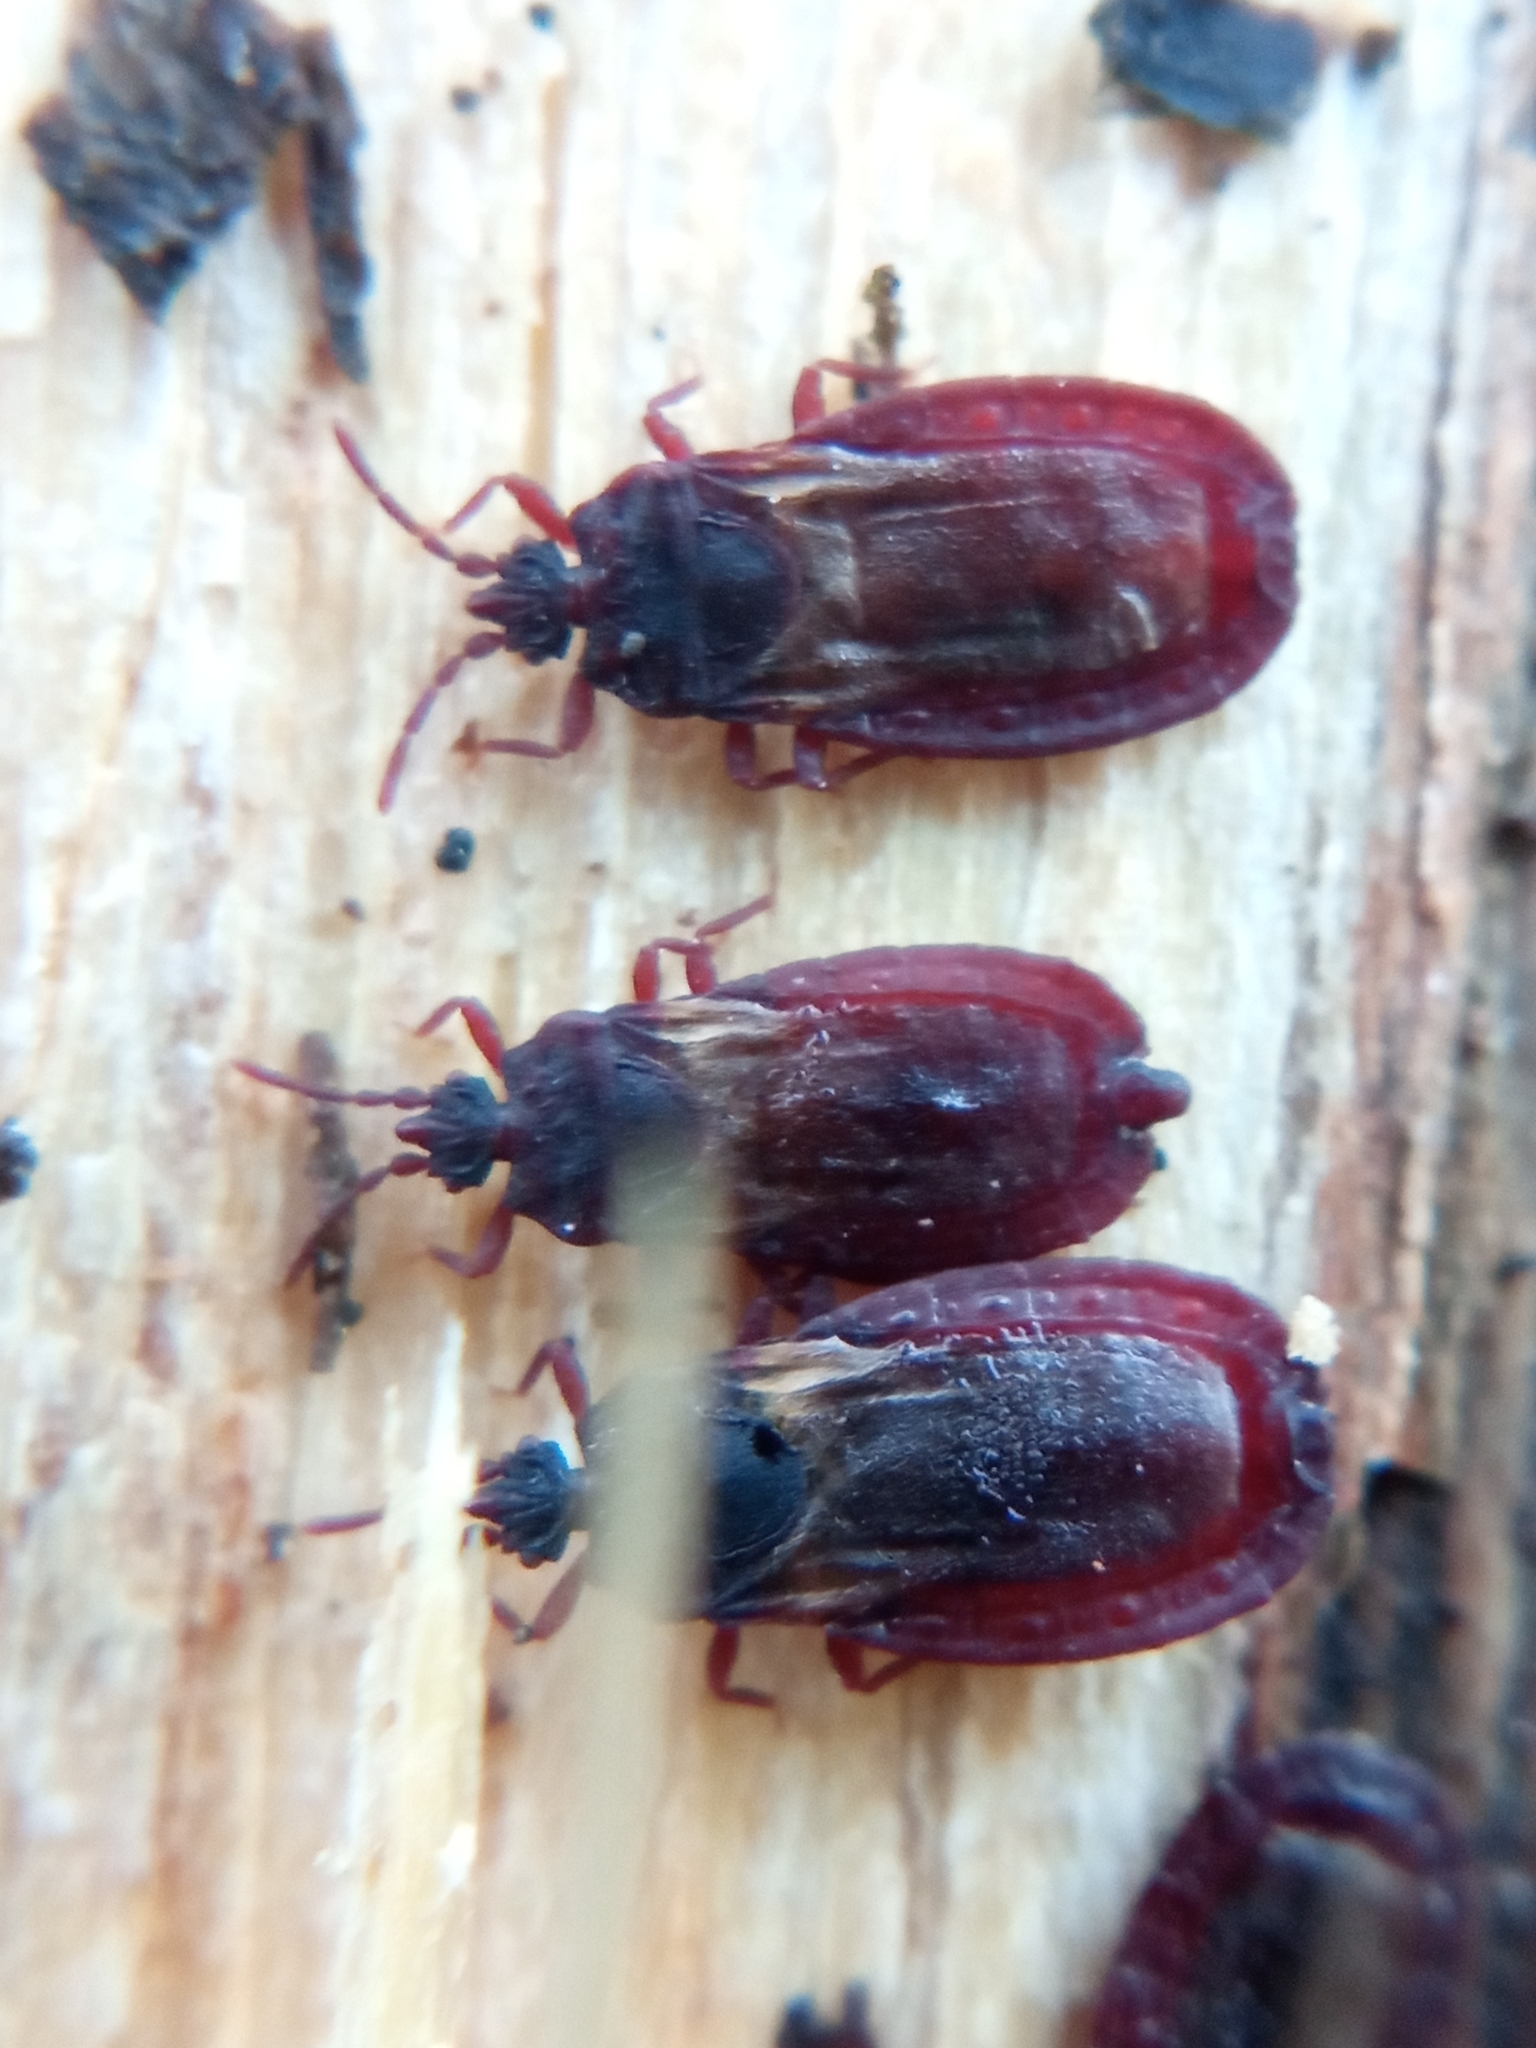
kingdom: Animalia
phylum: Arthropoda
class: Insecta
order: Hemiptera
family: Aradidae
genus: Aneurus
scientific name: Aneurus laevis
